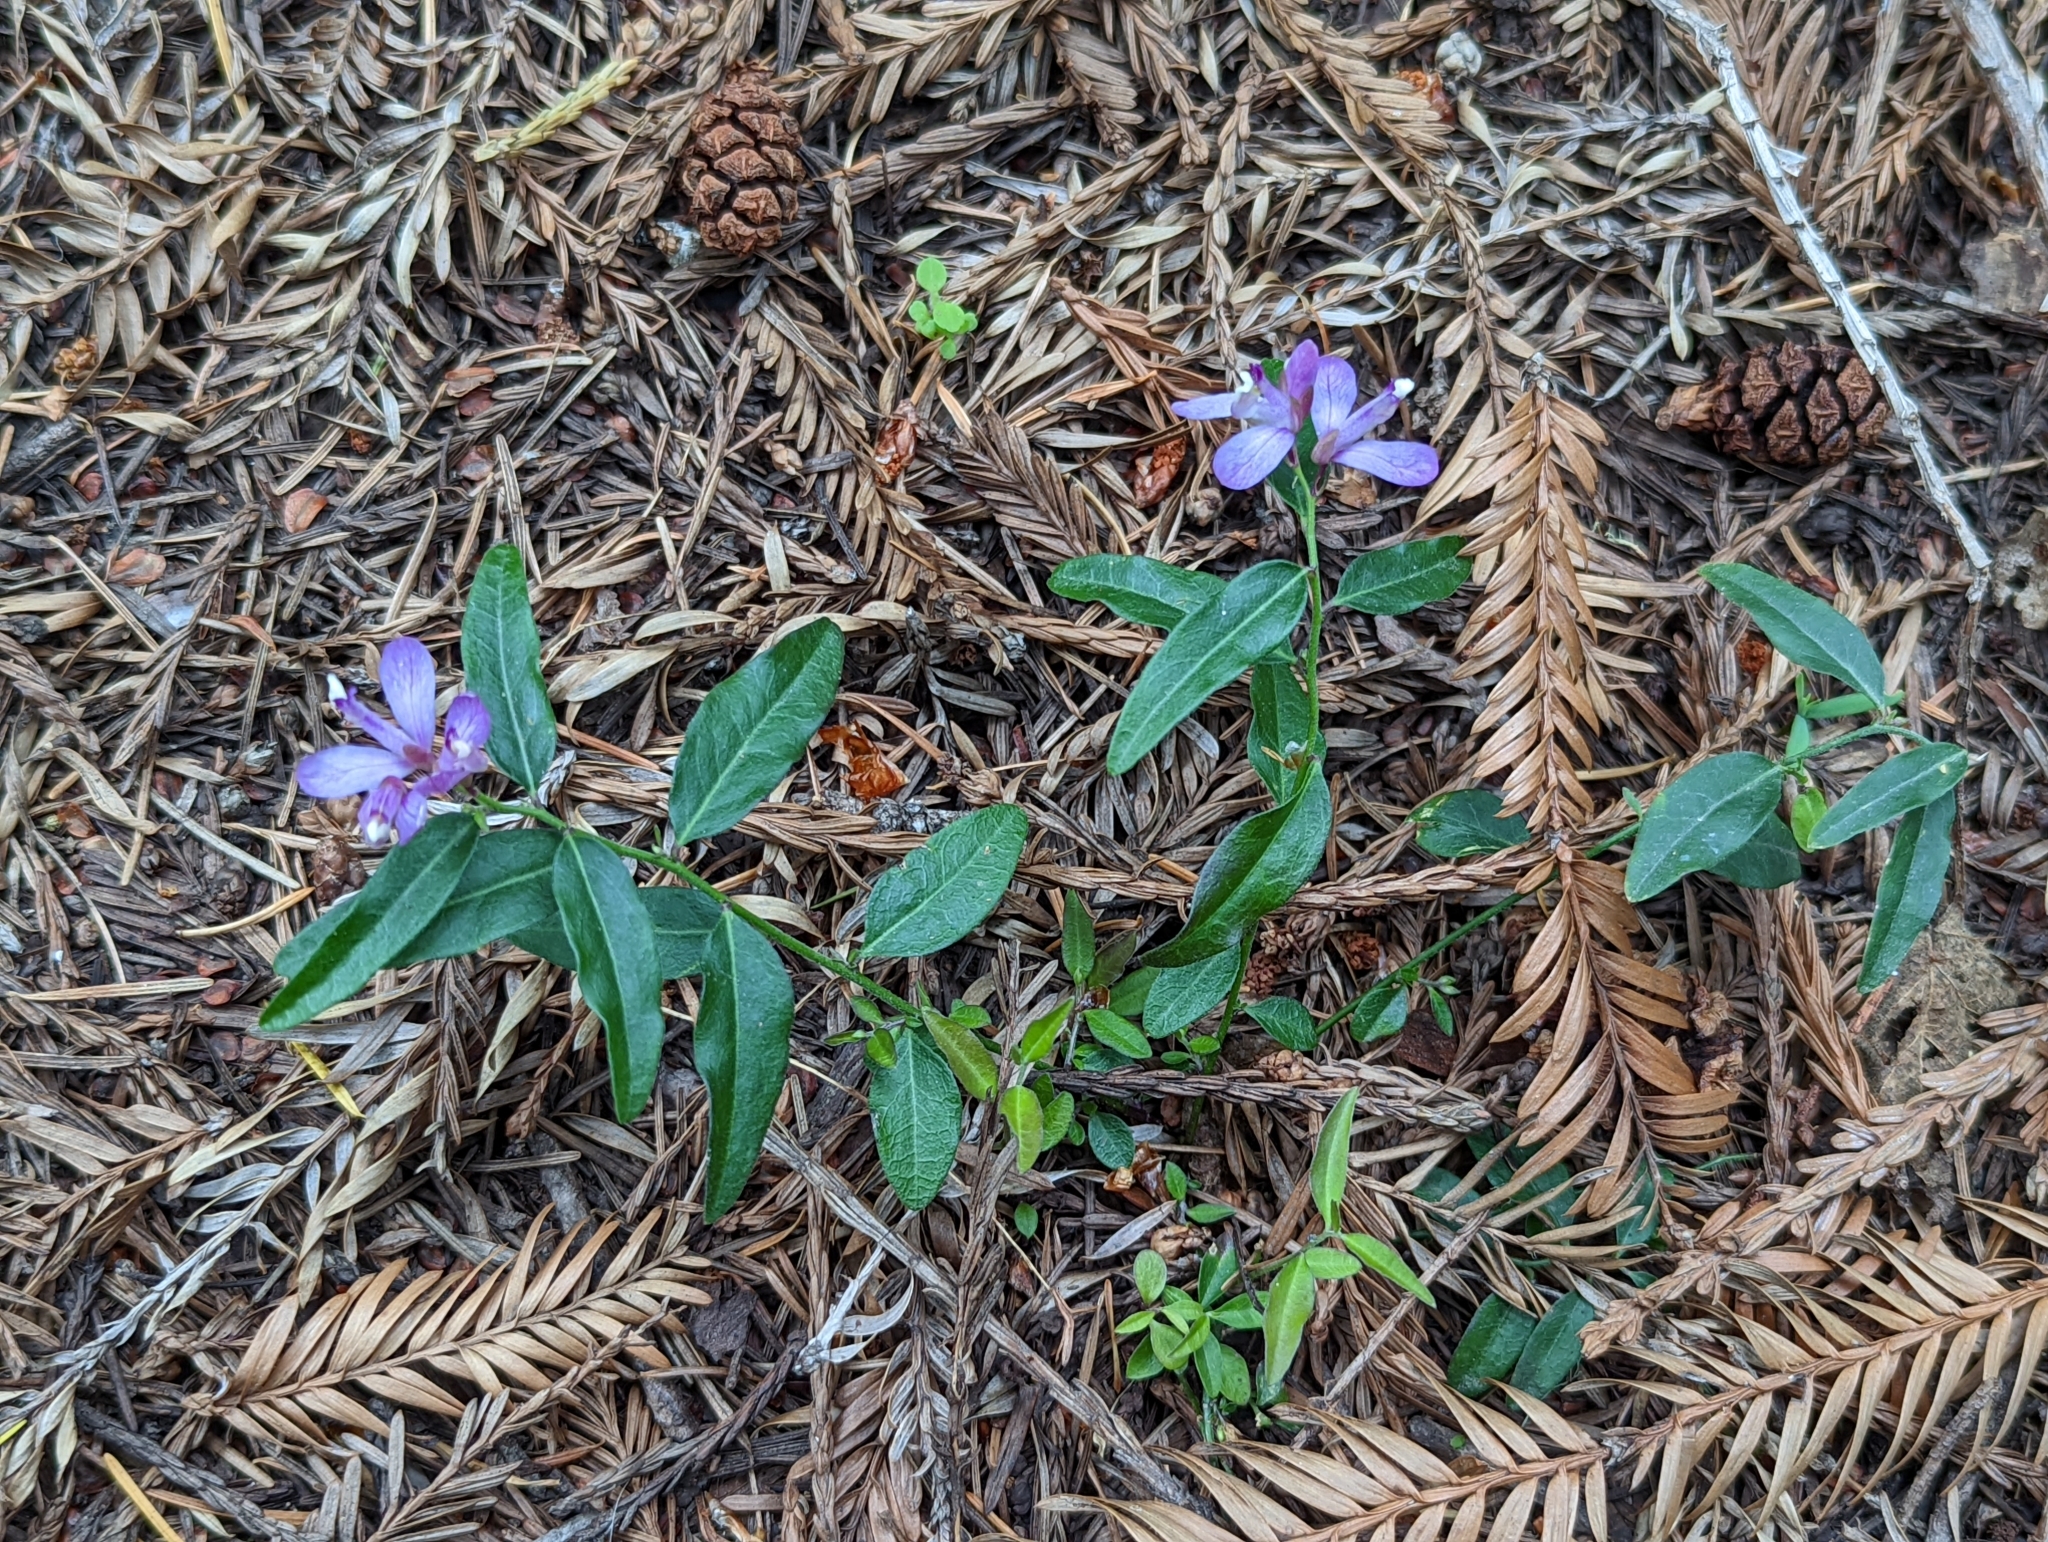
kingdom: Plantae
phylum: Tracheophyta
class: Magnoliopsida
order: Fabales
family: Polygalaceae
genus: Rhinotropis
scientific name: Rhinotropis californica
